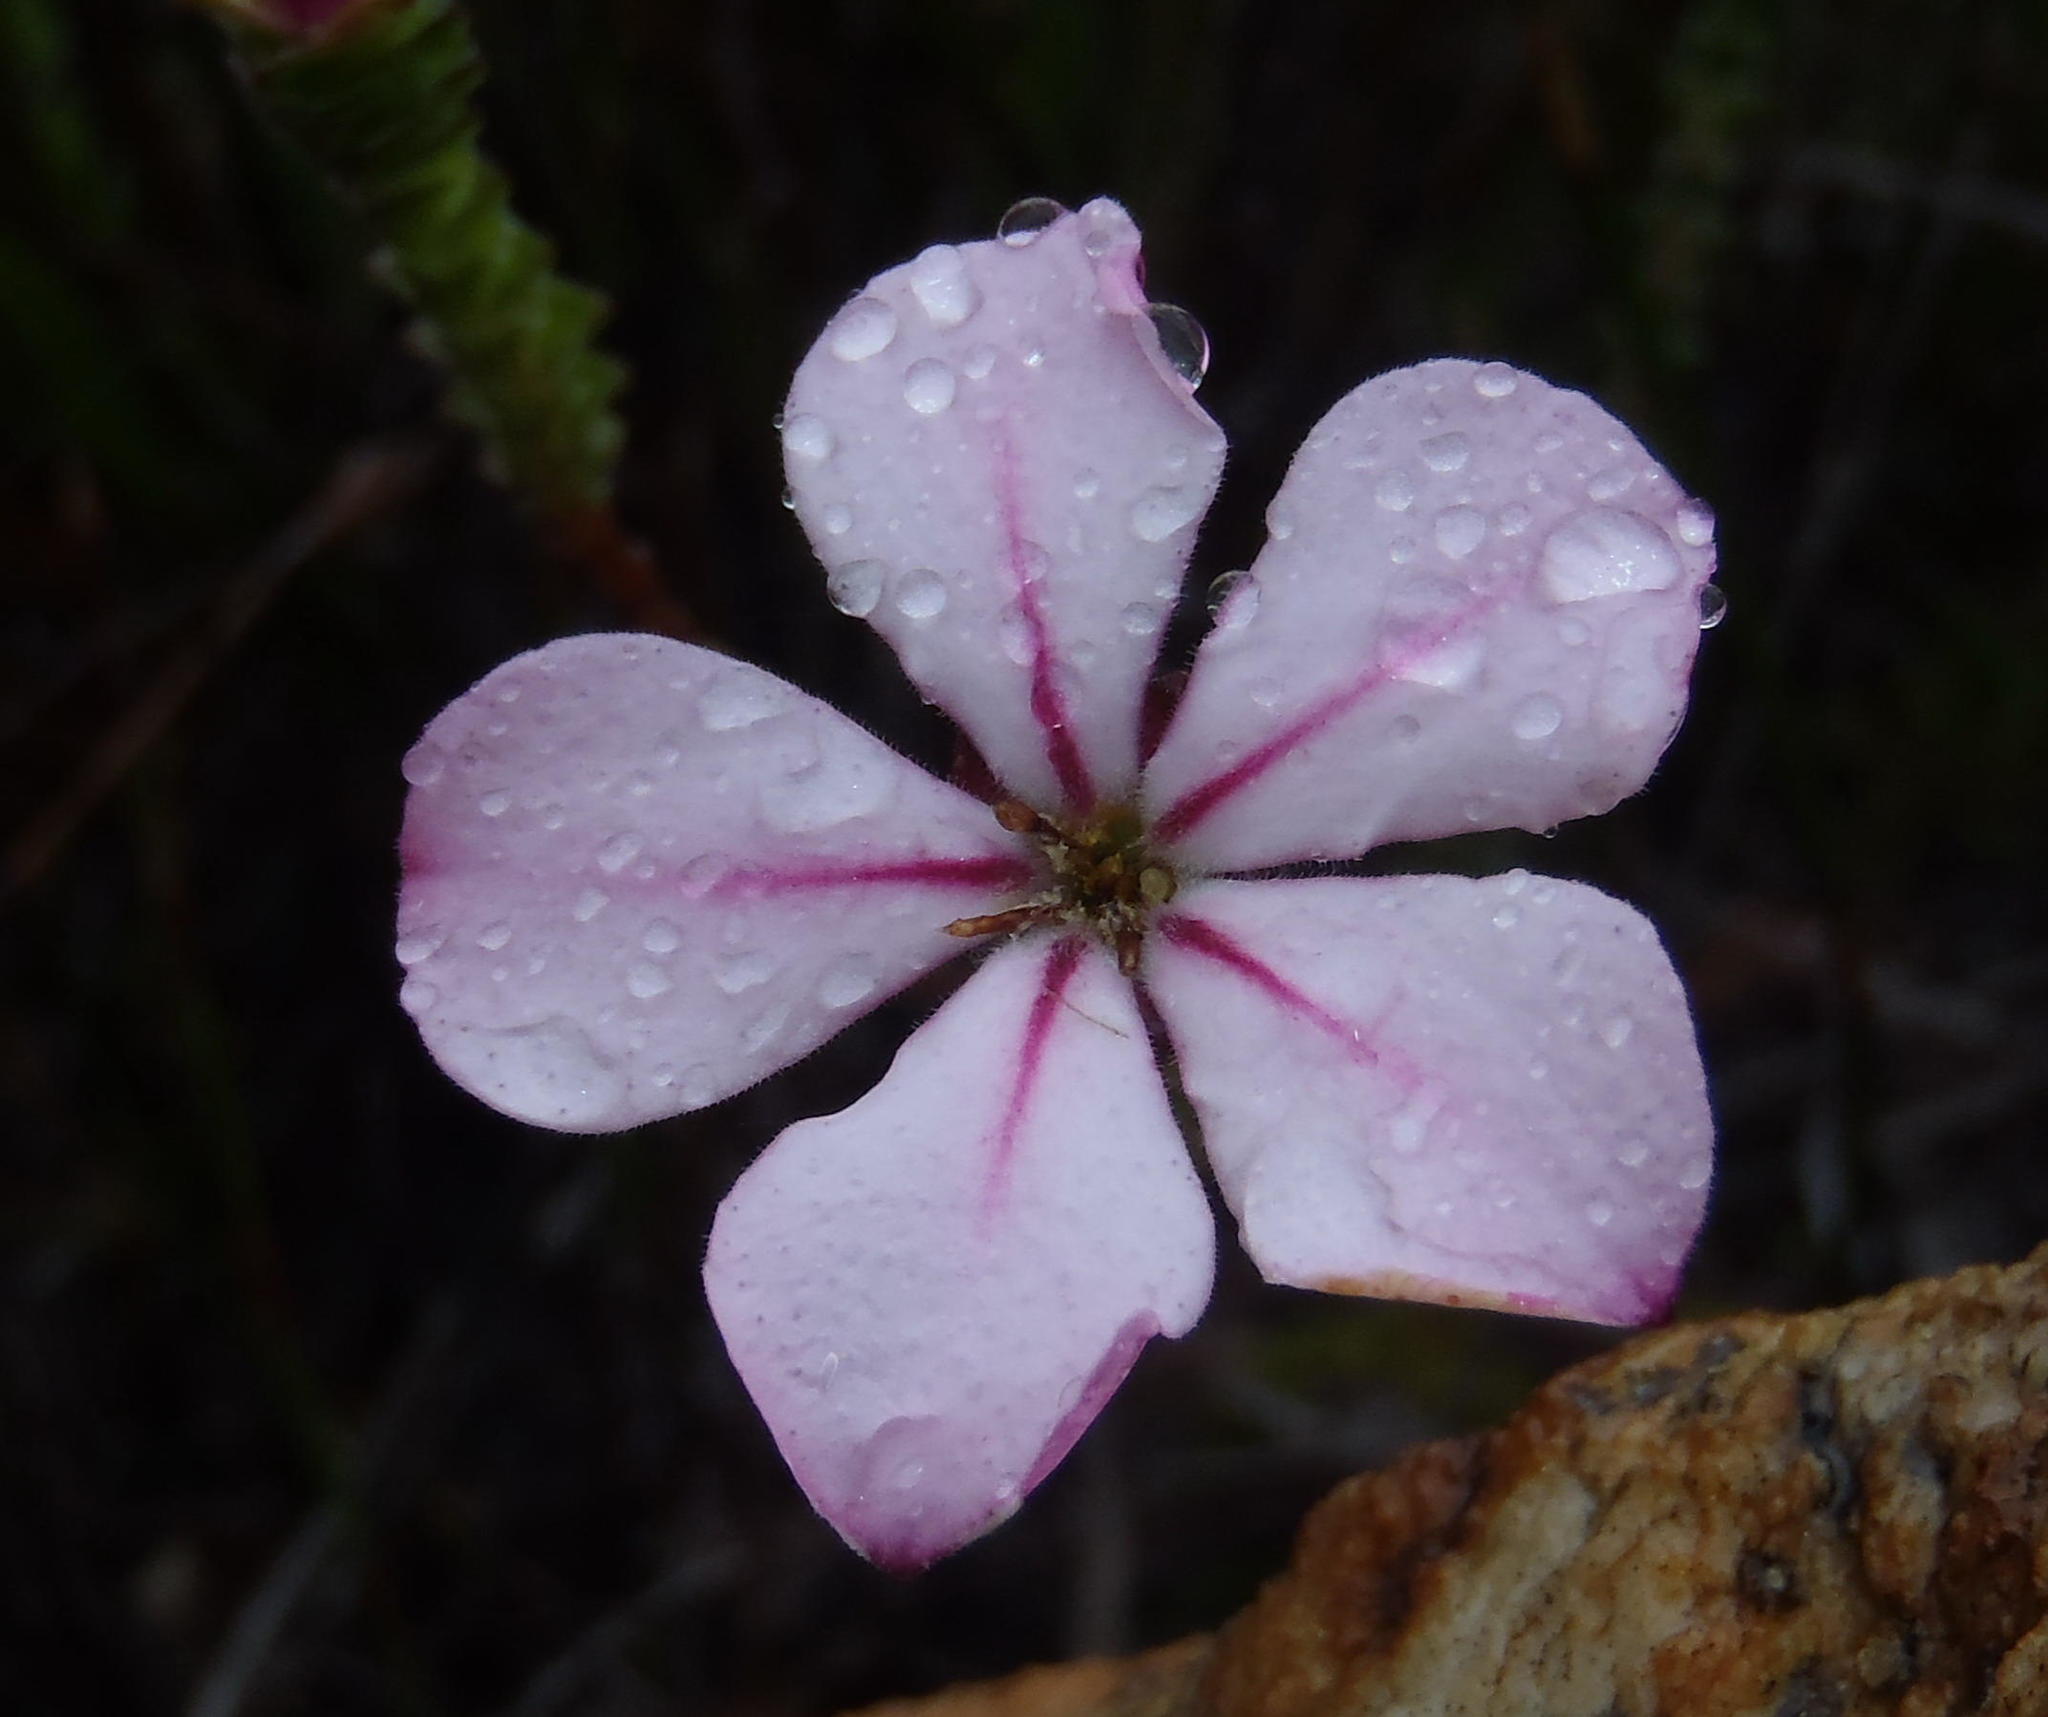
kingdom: Plantae
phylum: Tracheophyta
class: Magnoliopsida
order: Sapindales
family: Rutaceae
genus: Acmadenia
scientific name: Acmadenia tetragona
